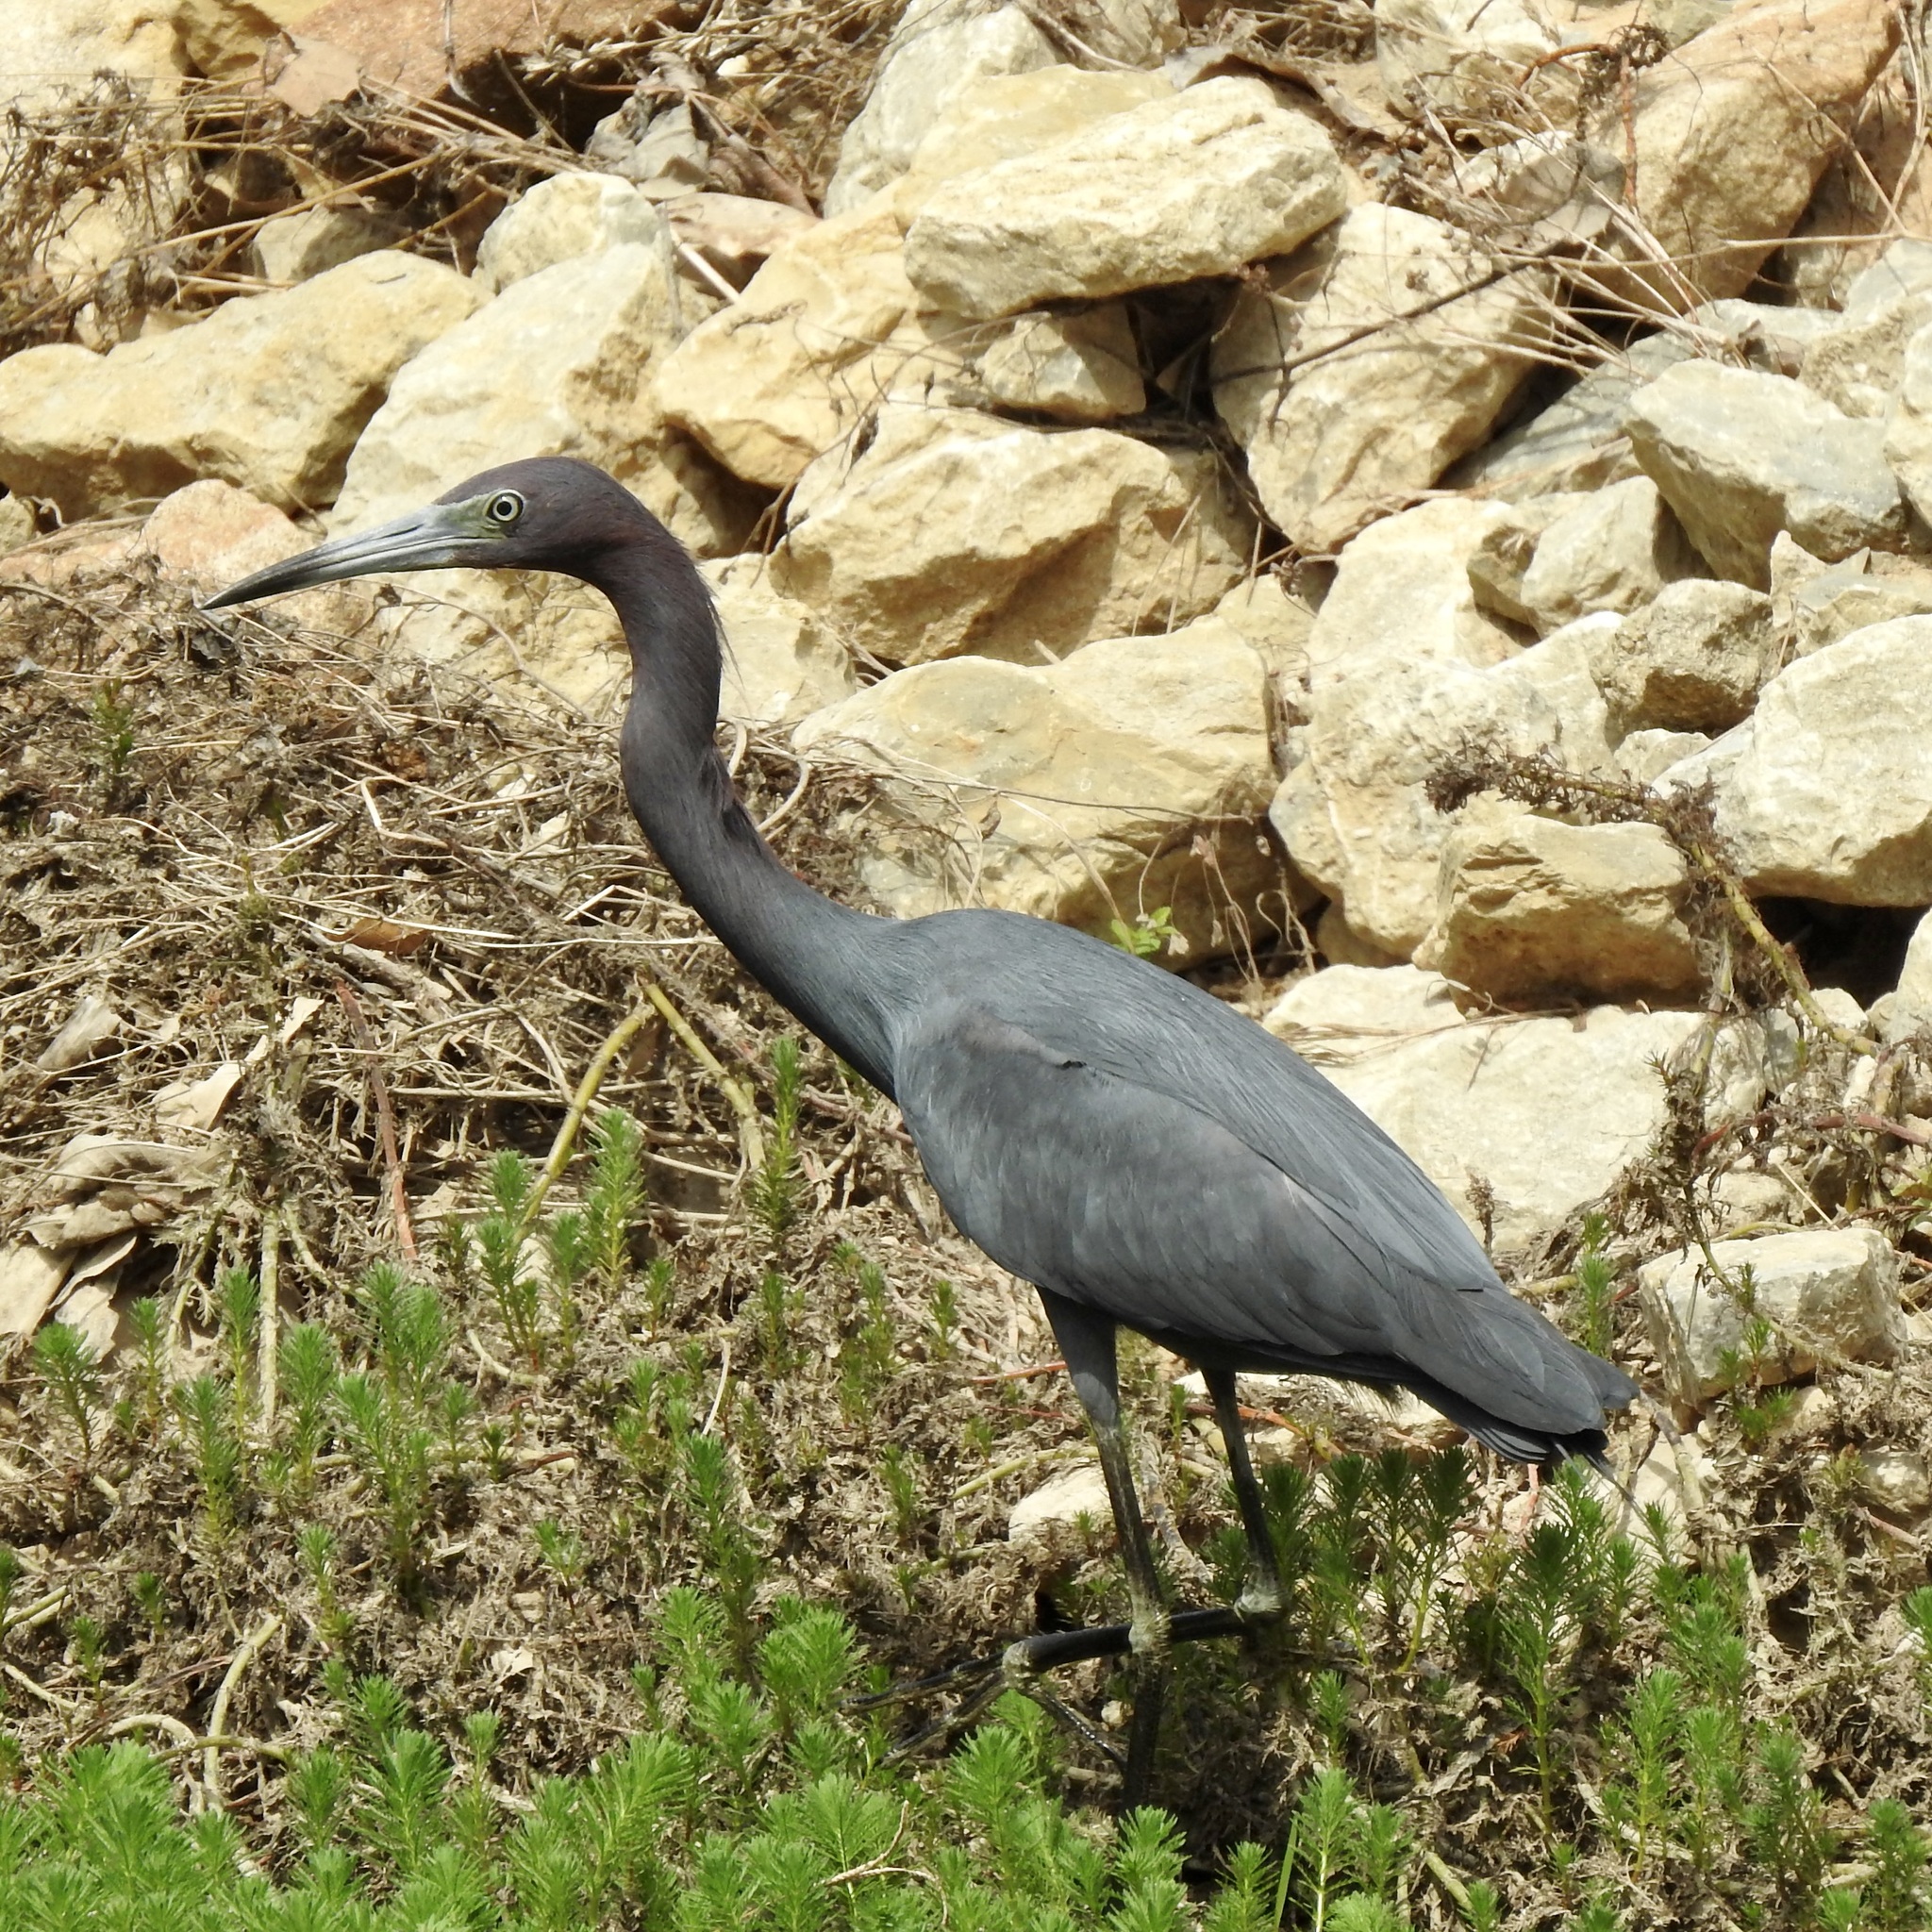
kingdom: Animalia
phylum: Chordata
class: Aves
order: Pelecaniformes
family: Ardeidae
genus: Egretta
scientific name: Egretta caerulea
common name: Little blue heron
